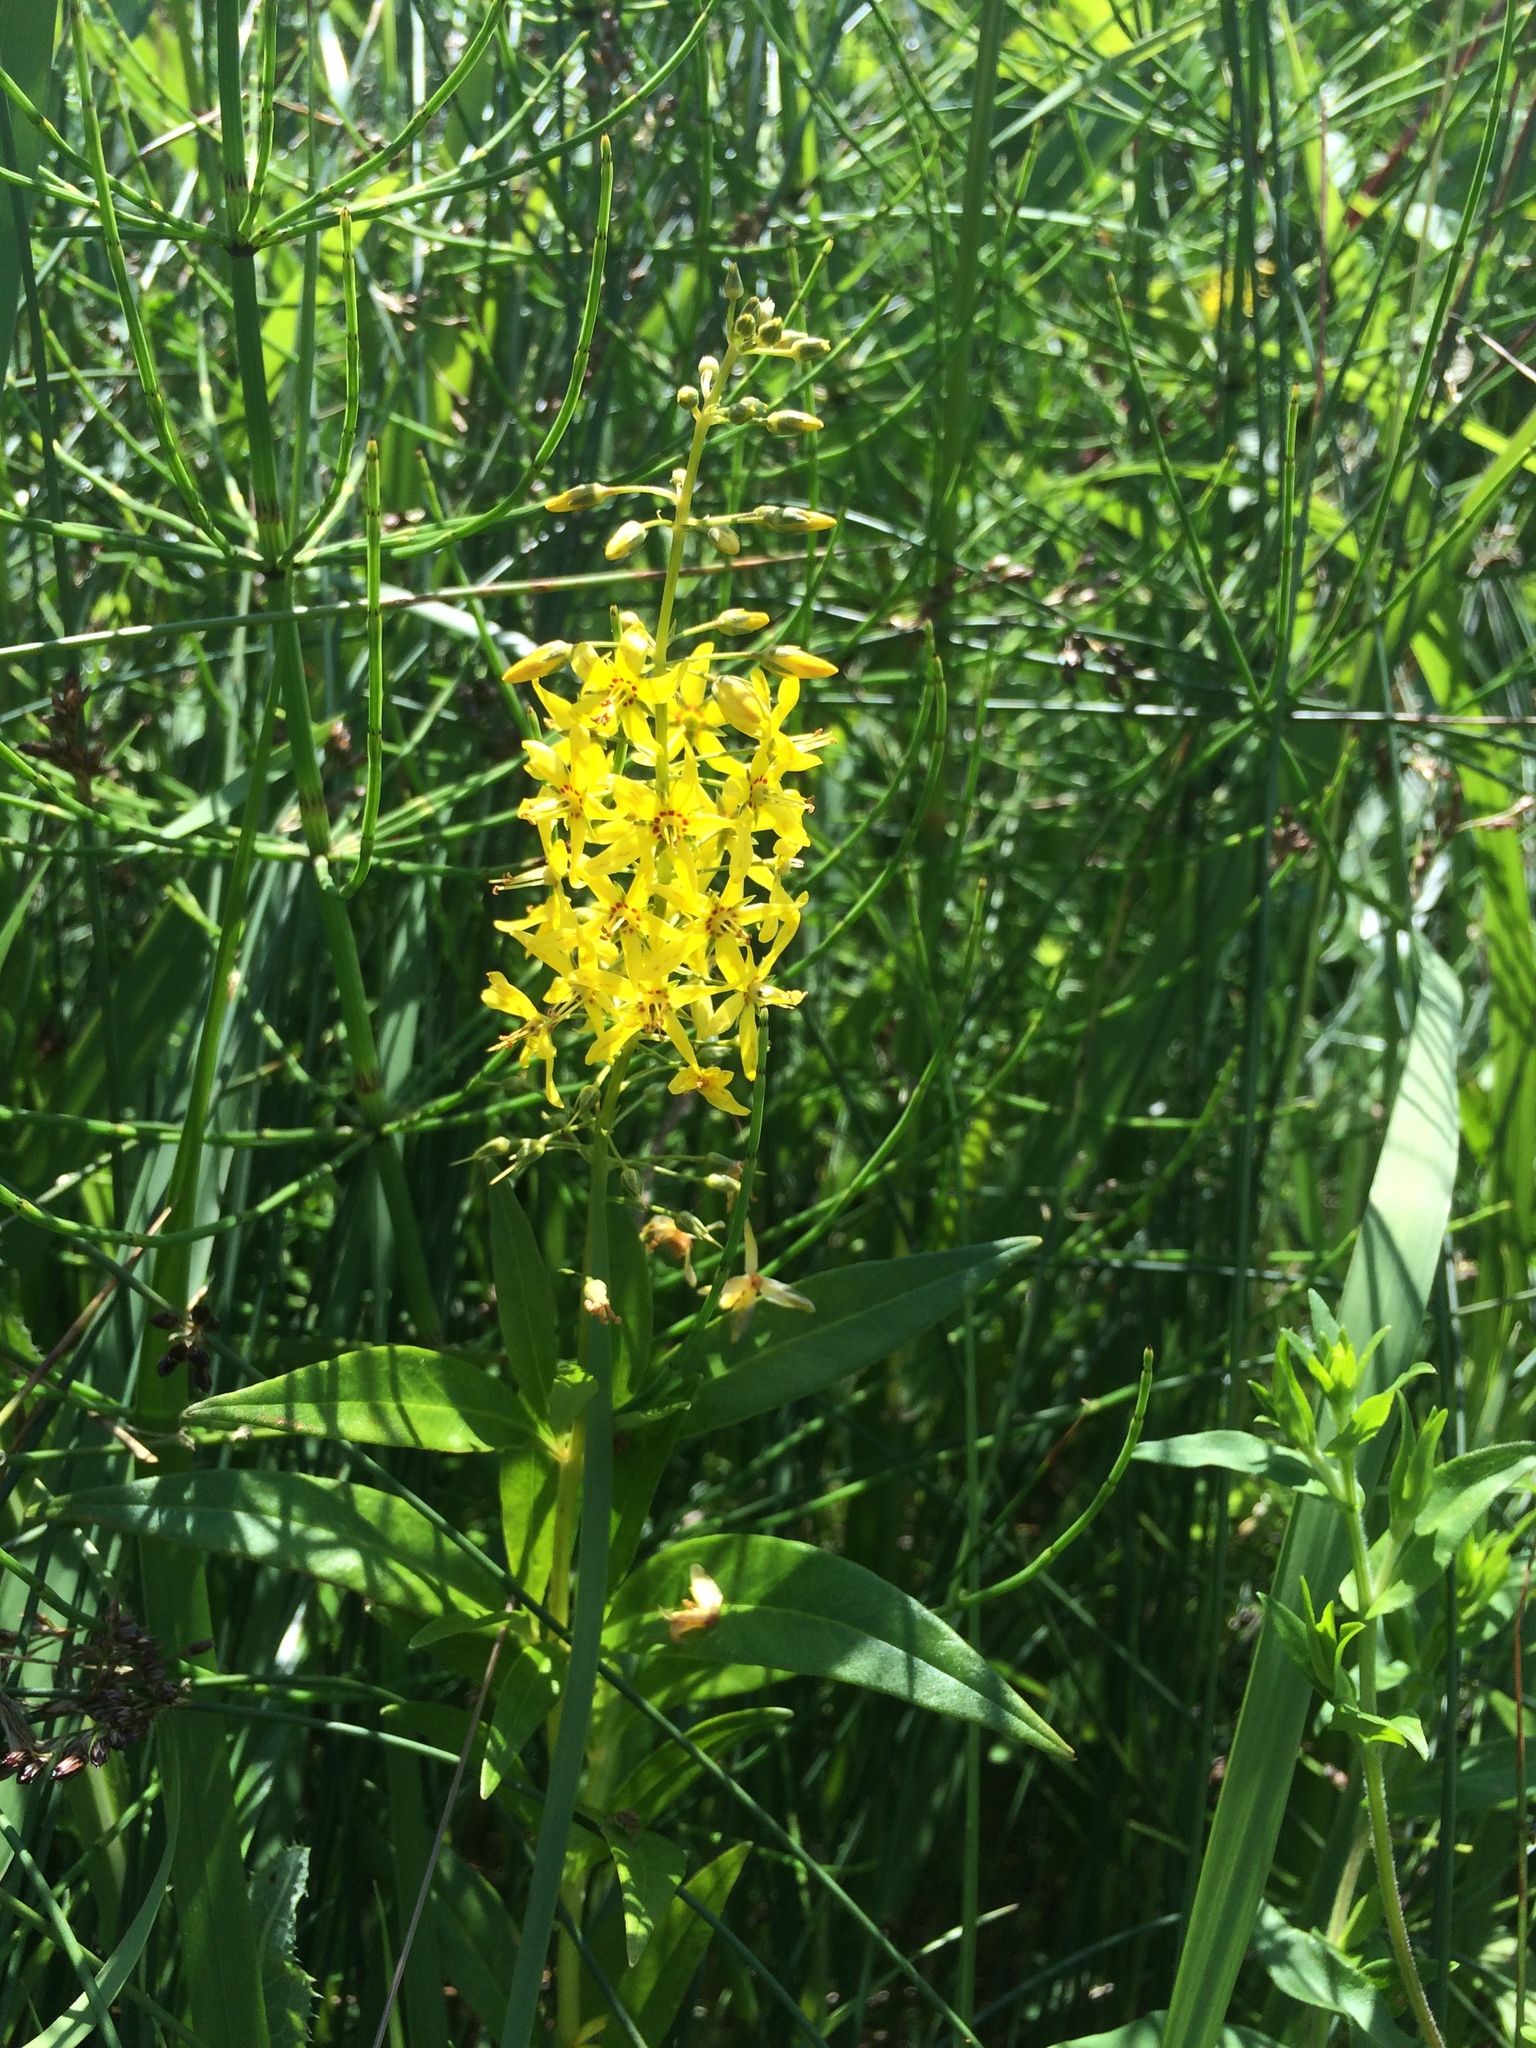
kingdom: Plantae
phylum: Tracheophyta
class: Magnoliopsida
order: Ericales
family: Primulaceae
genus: Lysimachia
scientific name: Lysimachia terrestris
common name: Lake loosestrife
